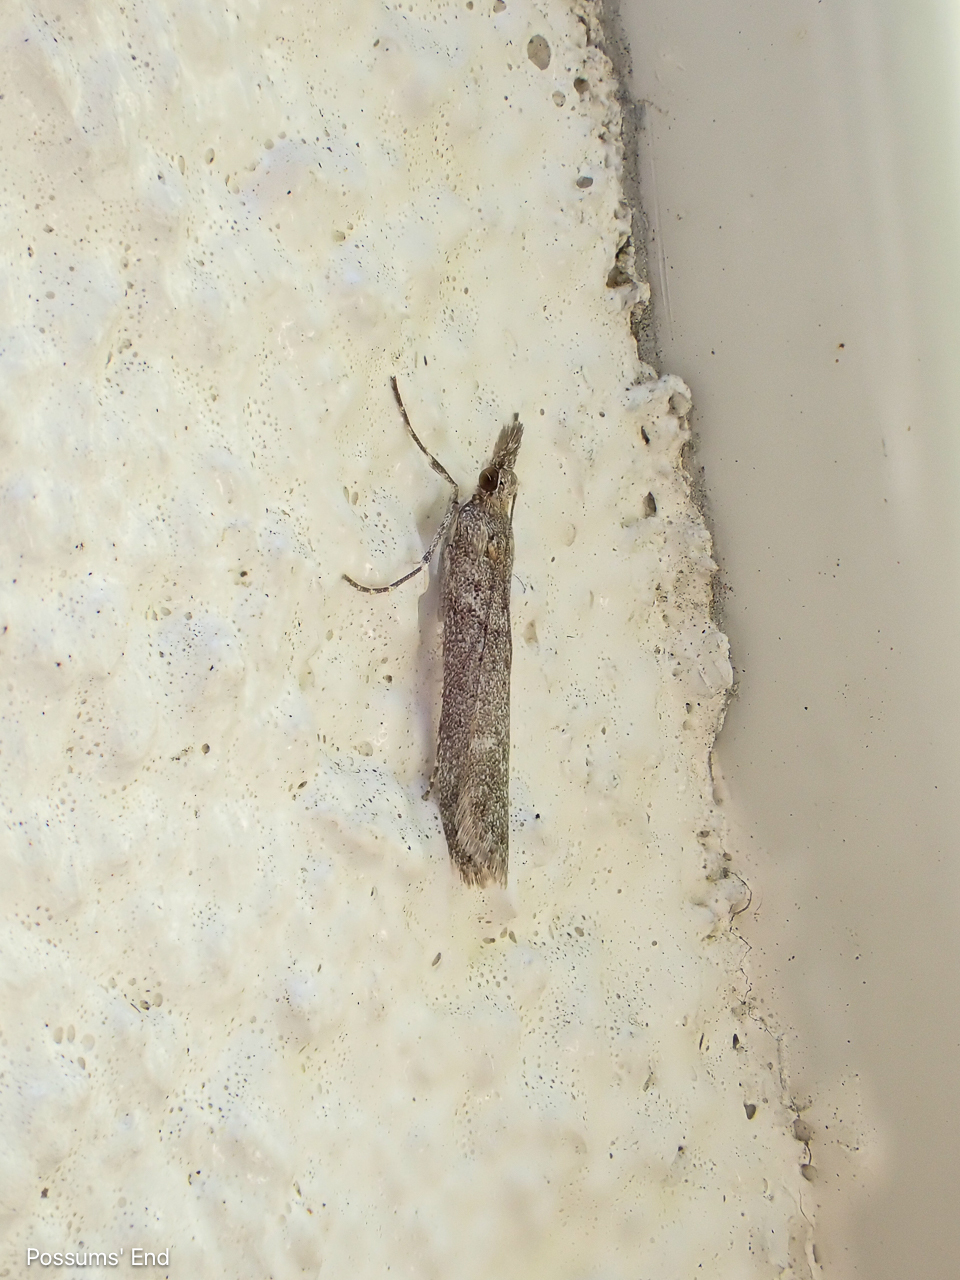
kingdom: Animalia
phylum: Arthropoda
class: Insecta
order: Lepidoptera
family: Crambidae
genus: Eudonia
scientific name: Eudonia leptalea
